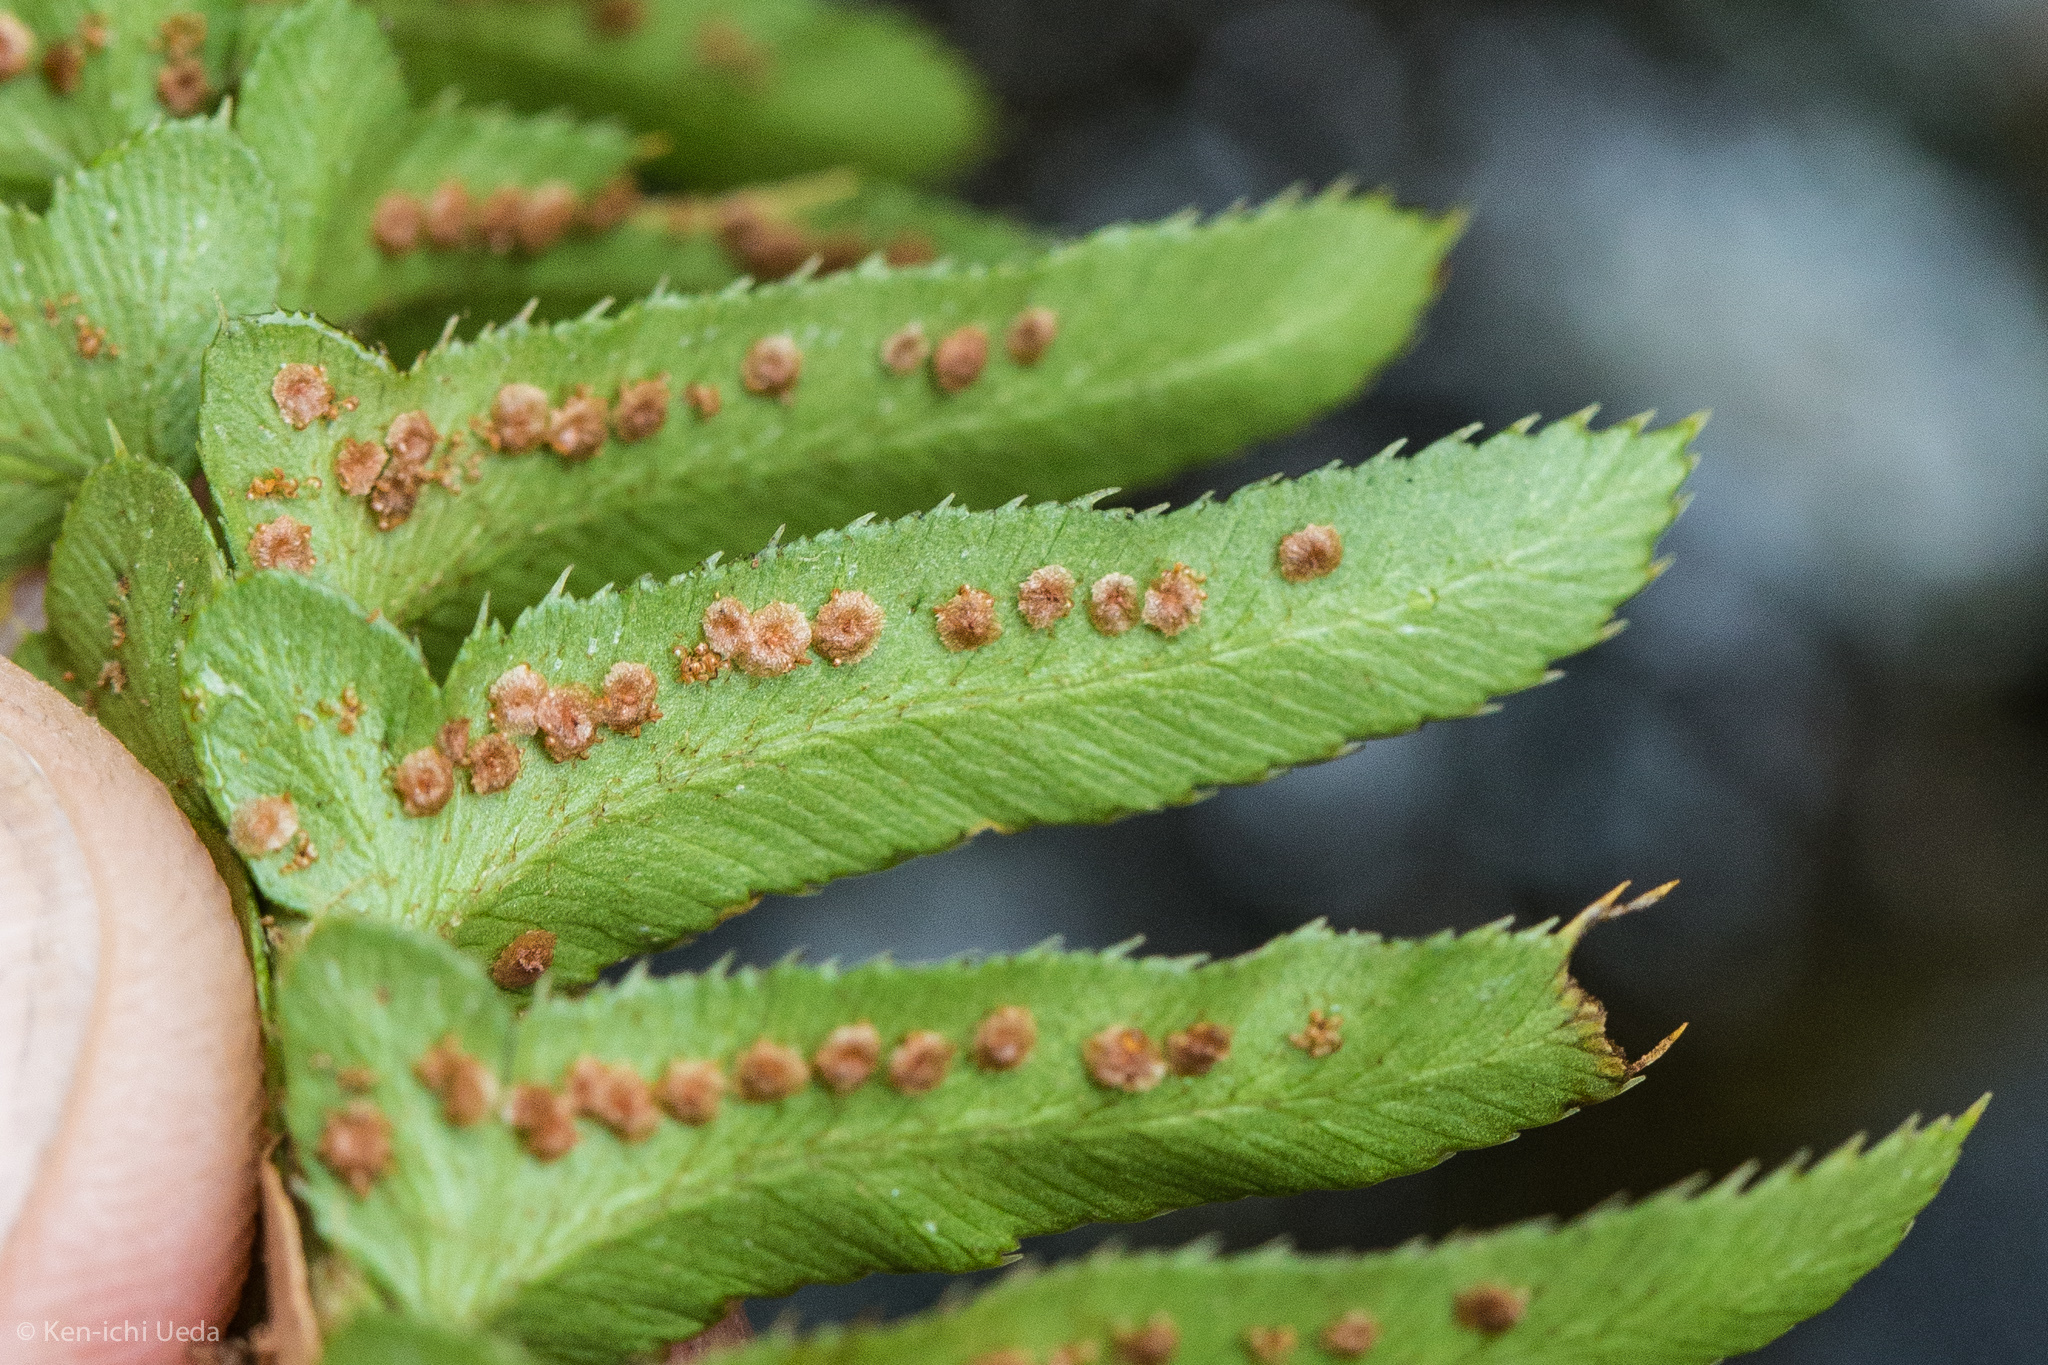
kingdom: Plantae
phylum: Tracheophyta
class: Polypodiopsida
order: Polypodiales
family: Dryopteridaceae
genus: Polystichum
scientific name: Polystichum imbricans
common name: Dwarf western sword fern
